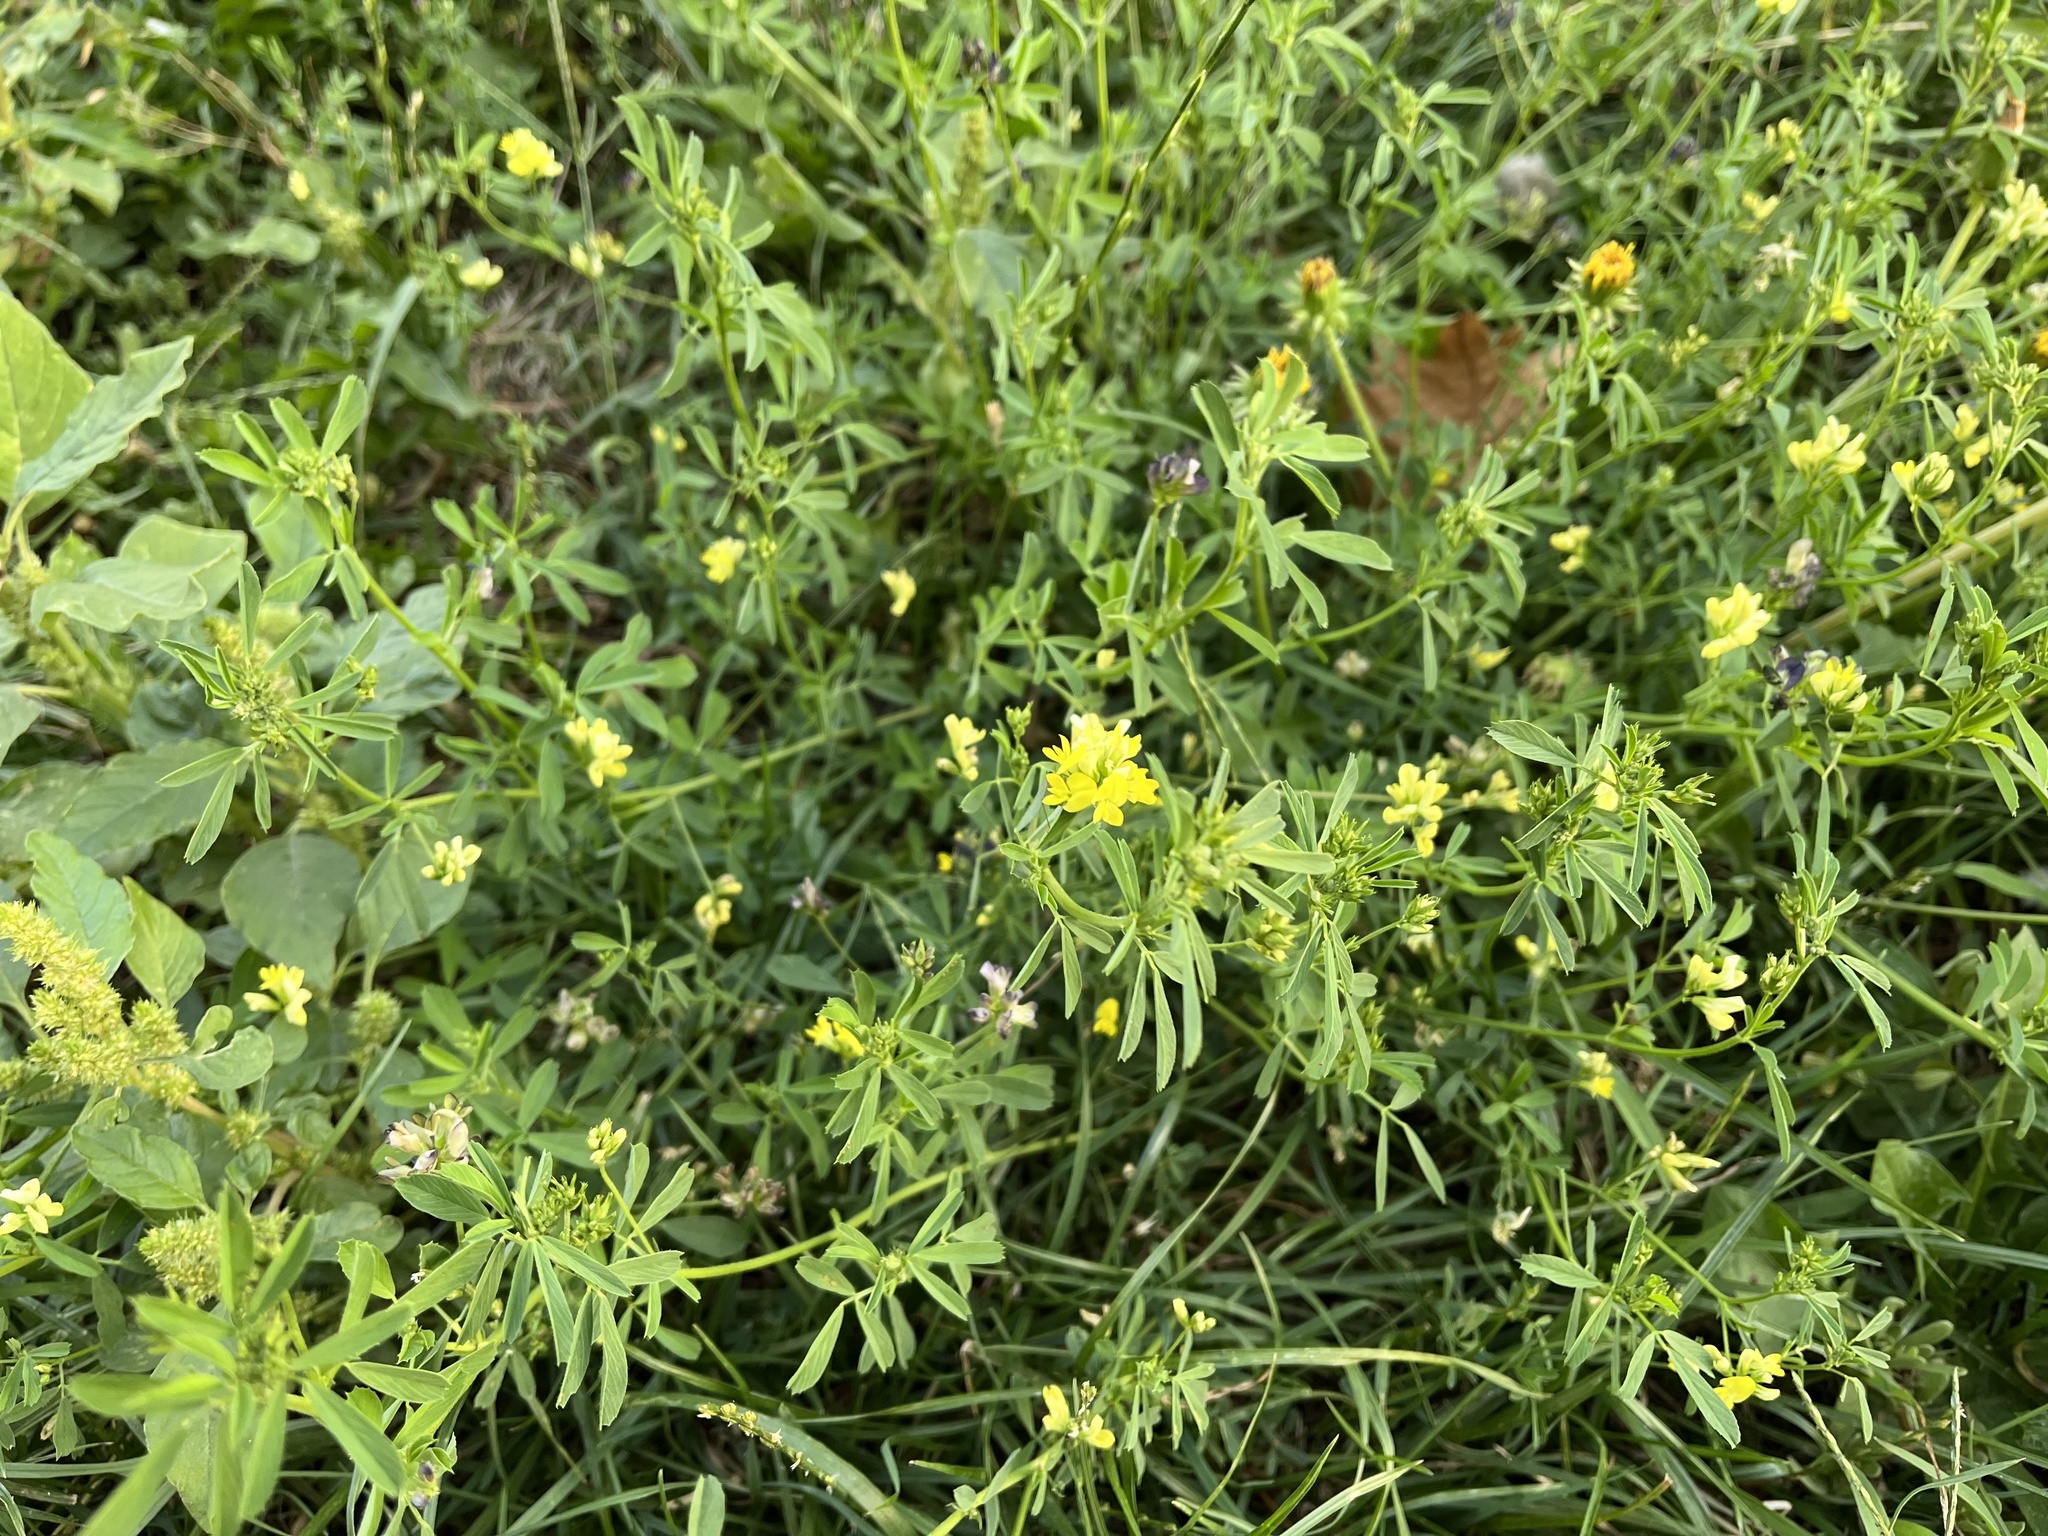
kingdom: Plantae
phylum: Tracheophyta
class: Magnoliopsida
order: Fabales
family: Fabaceae
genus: Medicago
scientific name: Medicago varia
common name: Sand lucerne
